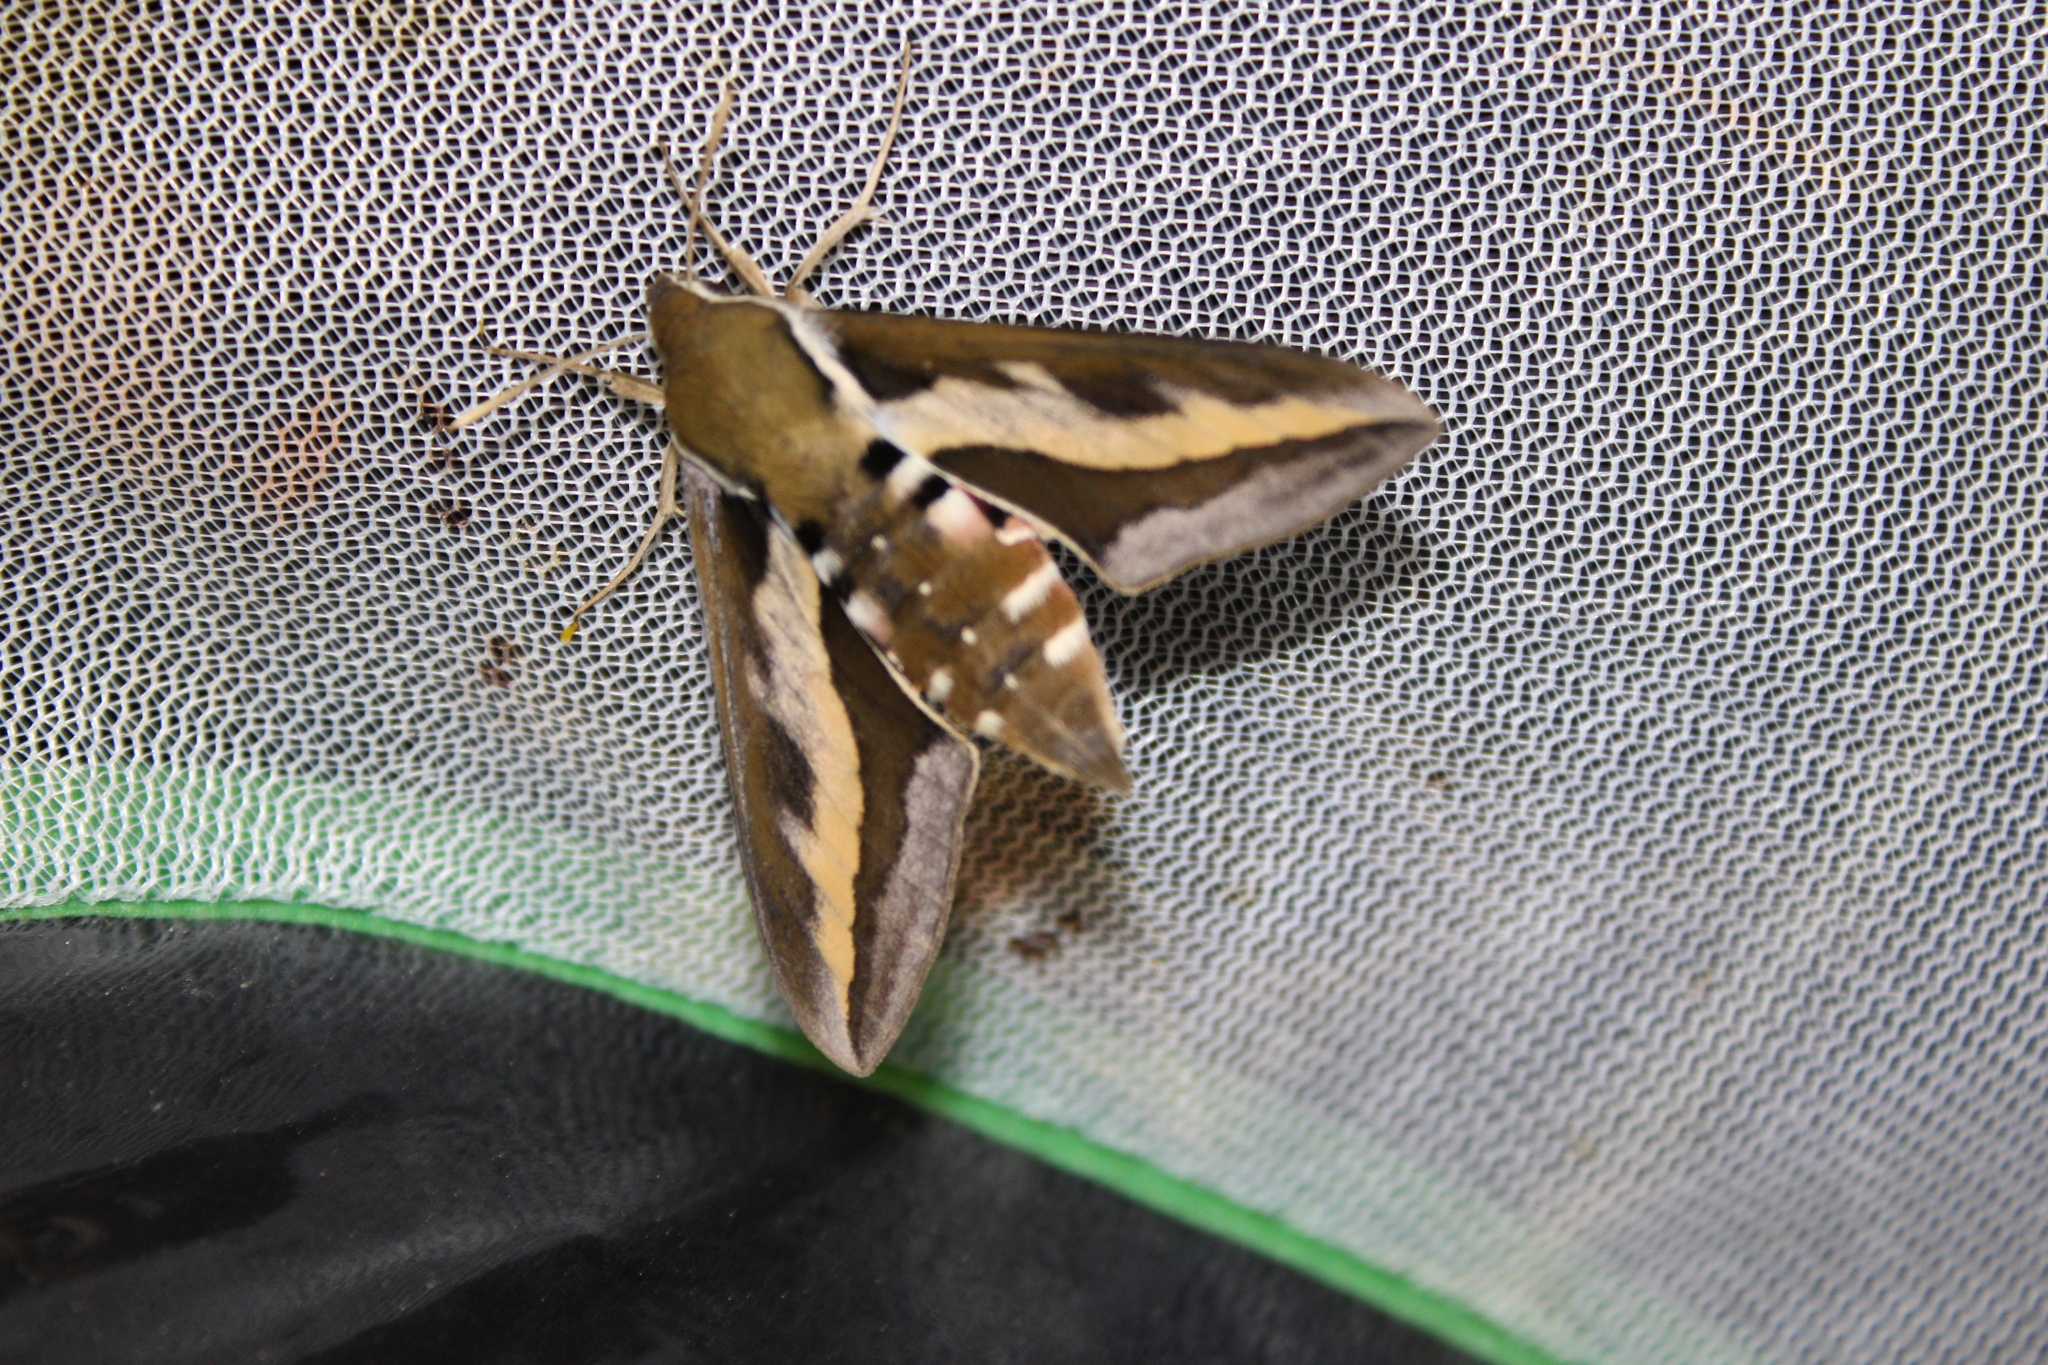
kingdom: Animalia
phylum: Arthropoda
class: Insecta
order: Lepidoptera
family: Sphingidae
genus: Hyles
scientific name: Hyles gallii
